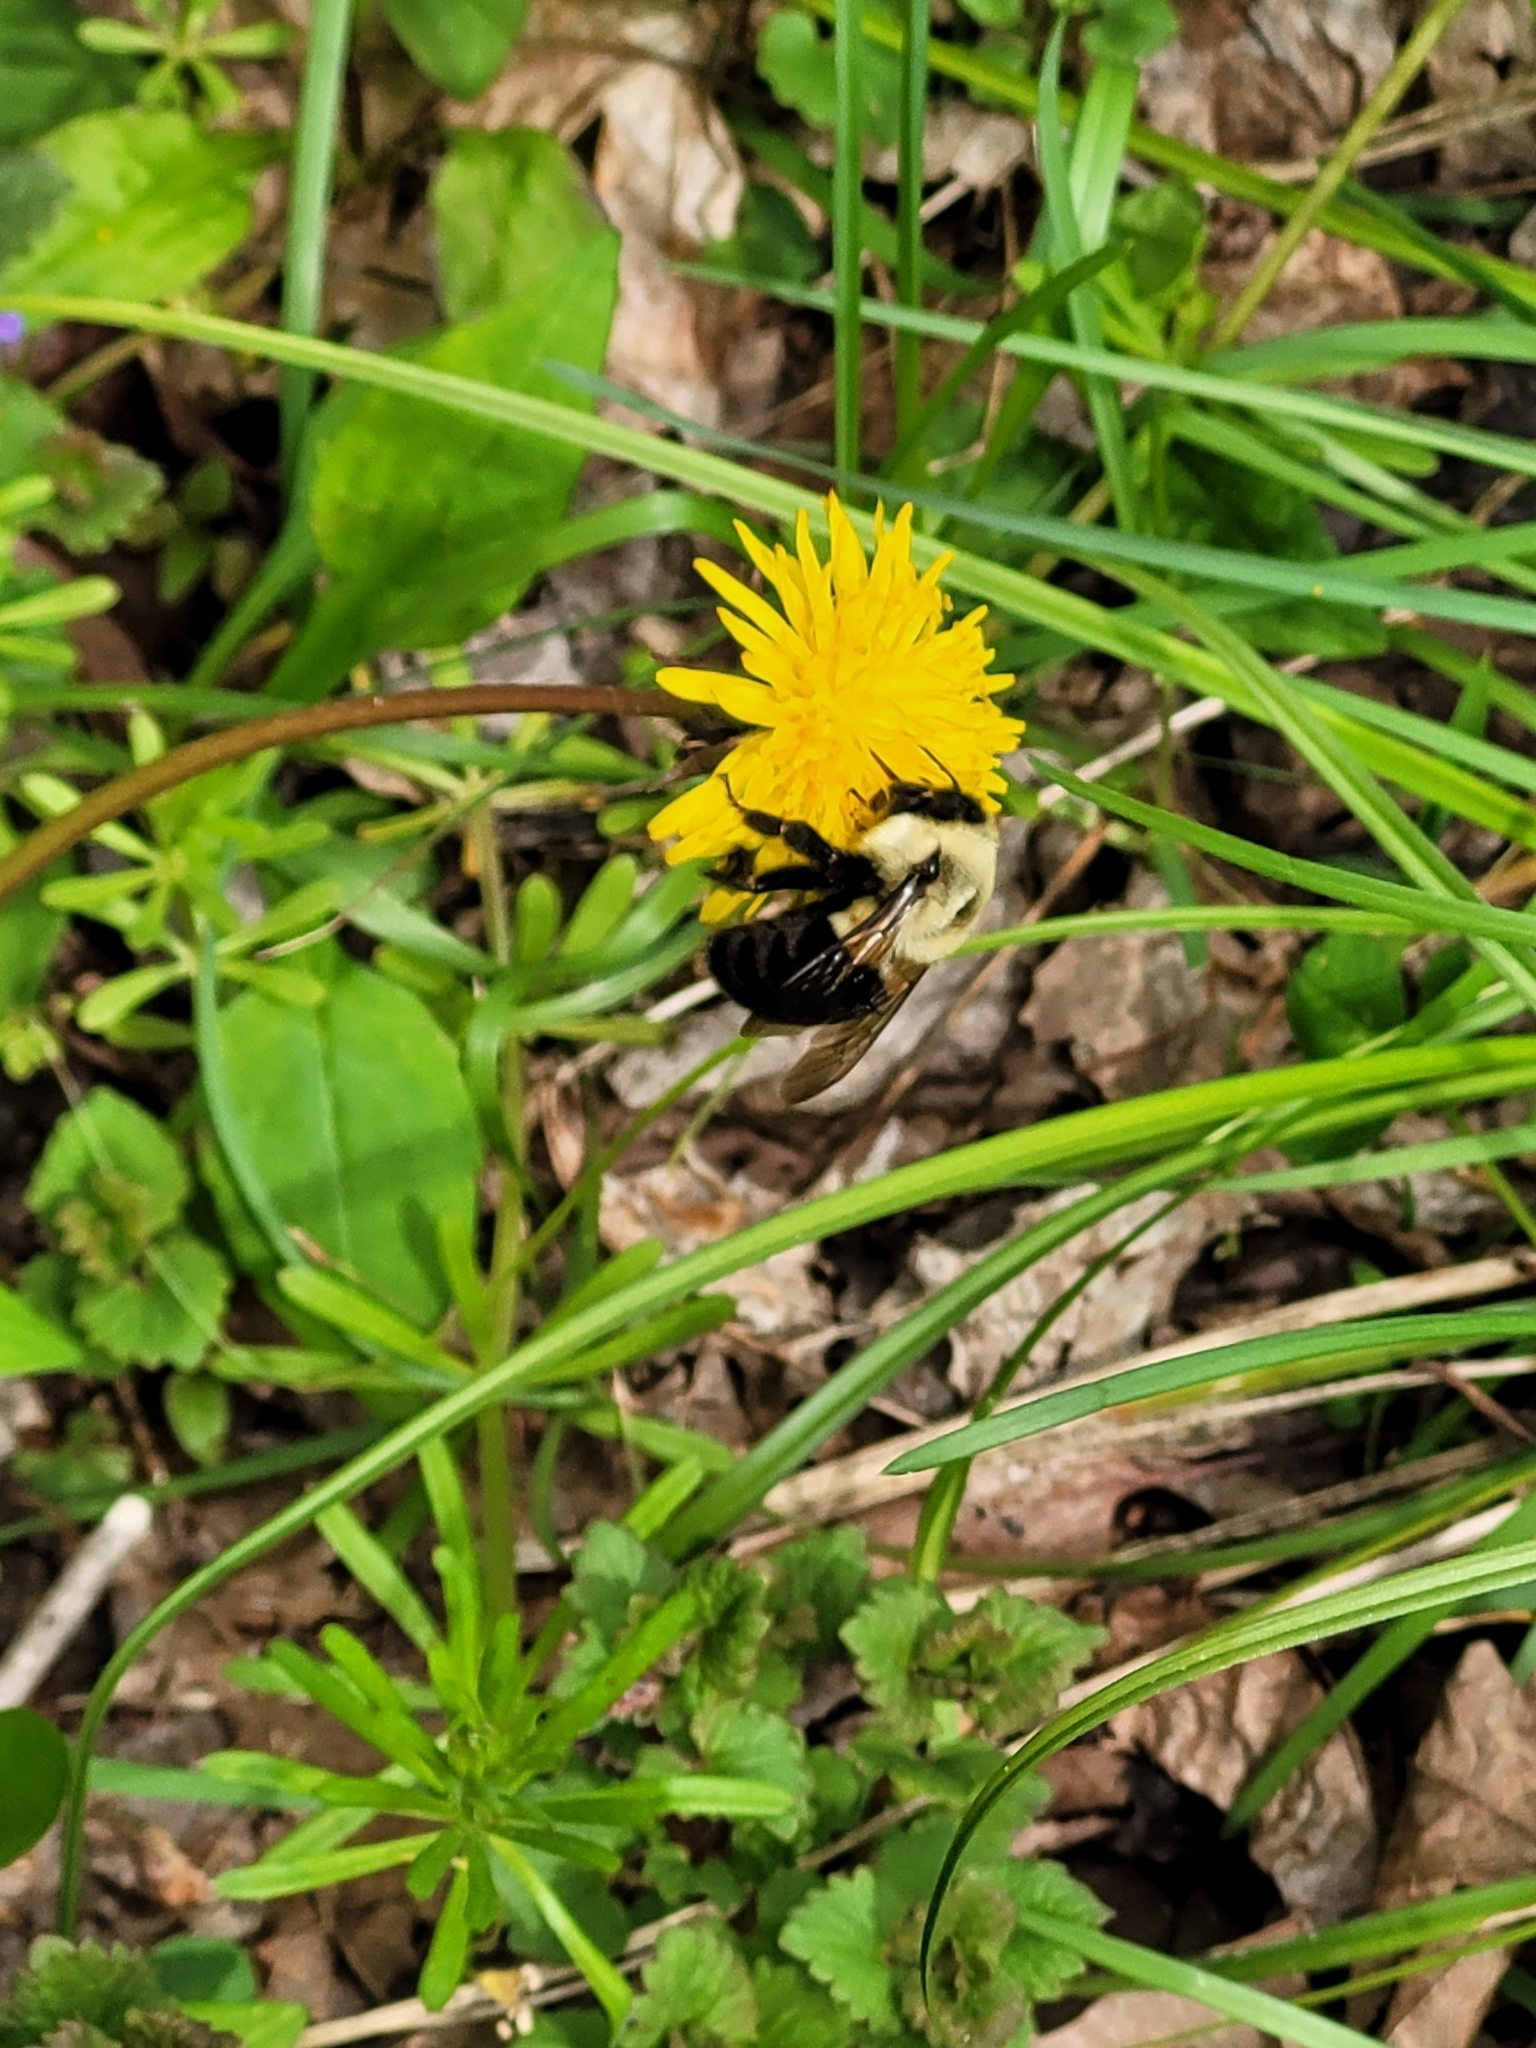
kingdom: Animalia
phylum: Arthropoda
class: Insecta
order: Hymenoptera
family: Apidae
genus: Bombus
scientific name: Bombus impatiens
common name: Common eastern bumble bee
